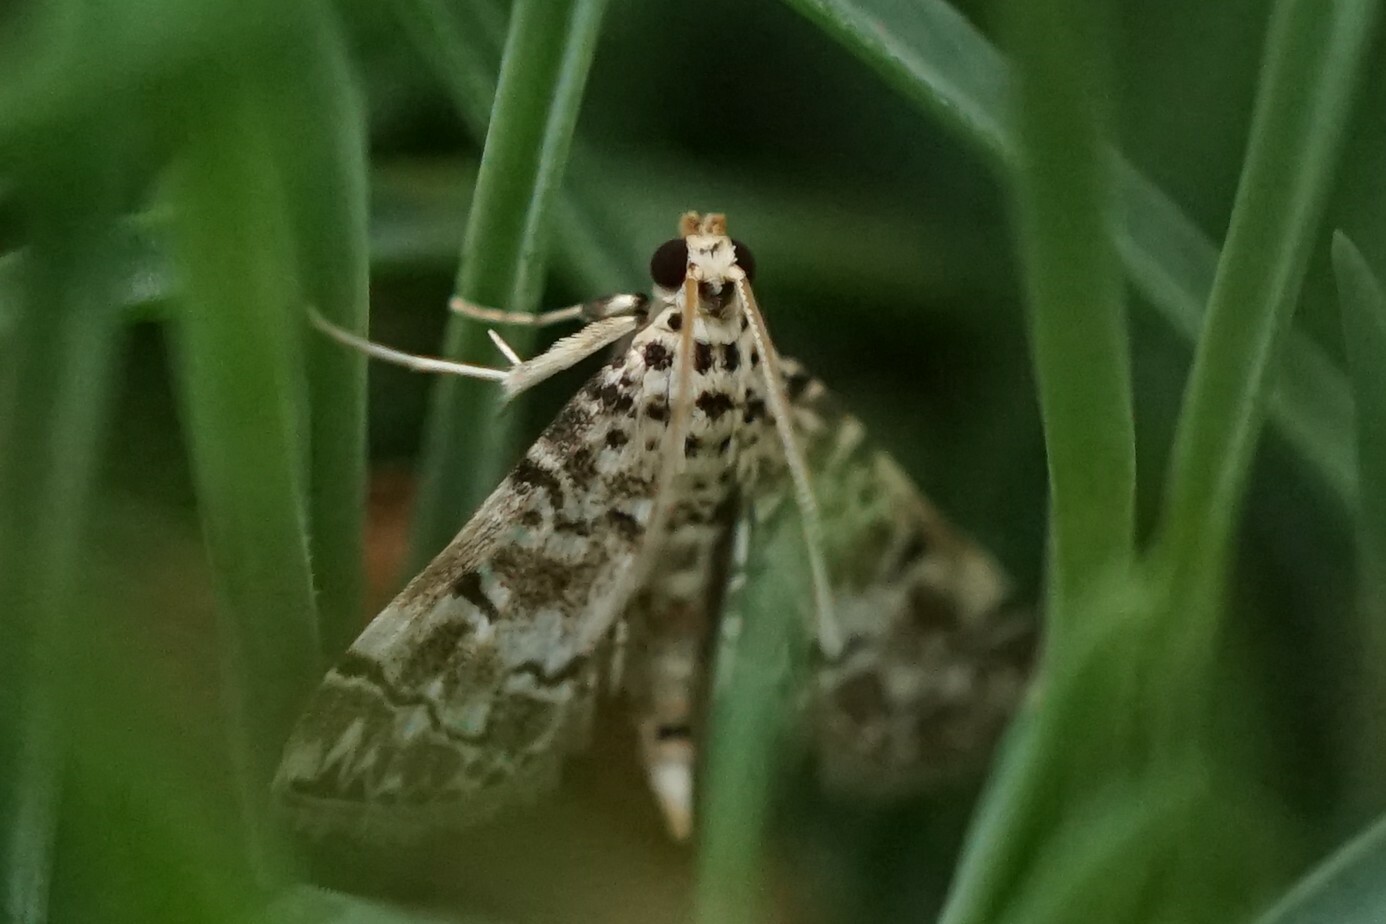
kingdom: Animalia
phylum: Arthropoda
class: Insecta
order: Lepidoptera
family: Crambidae
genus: Metoeca
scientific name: Metoeca foedalis
